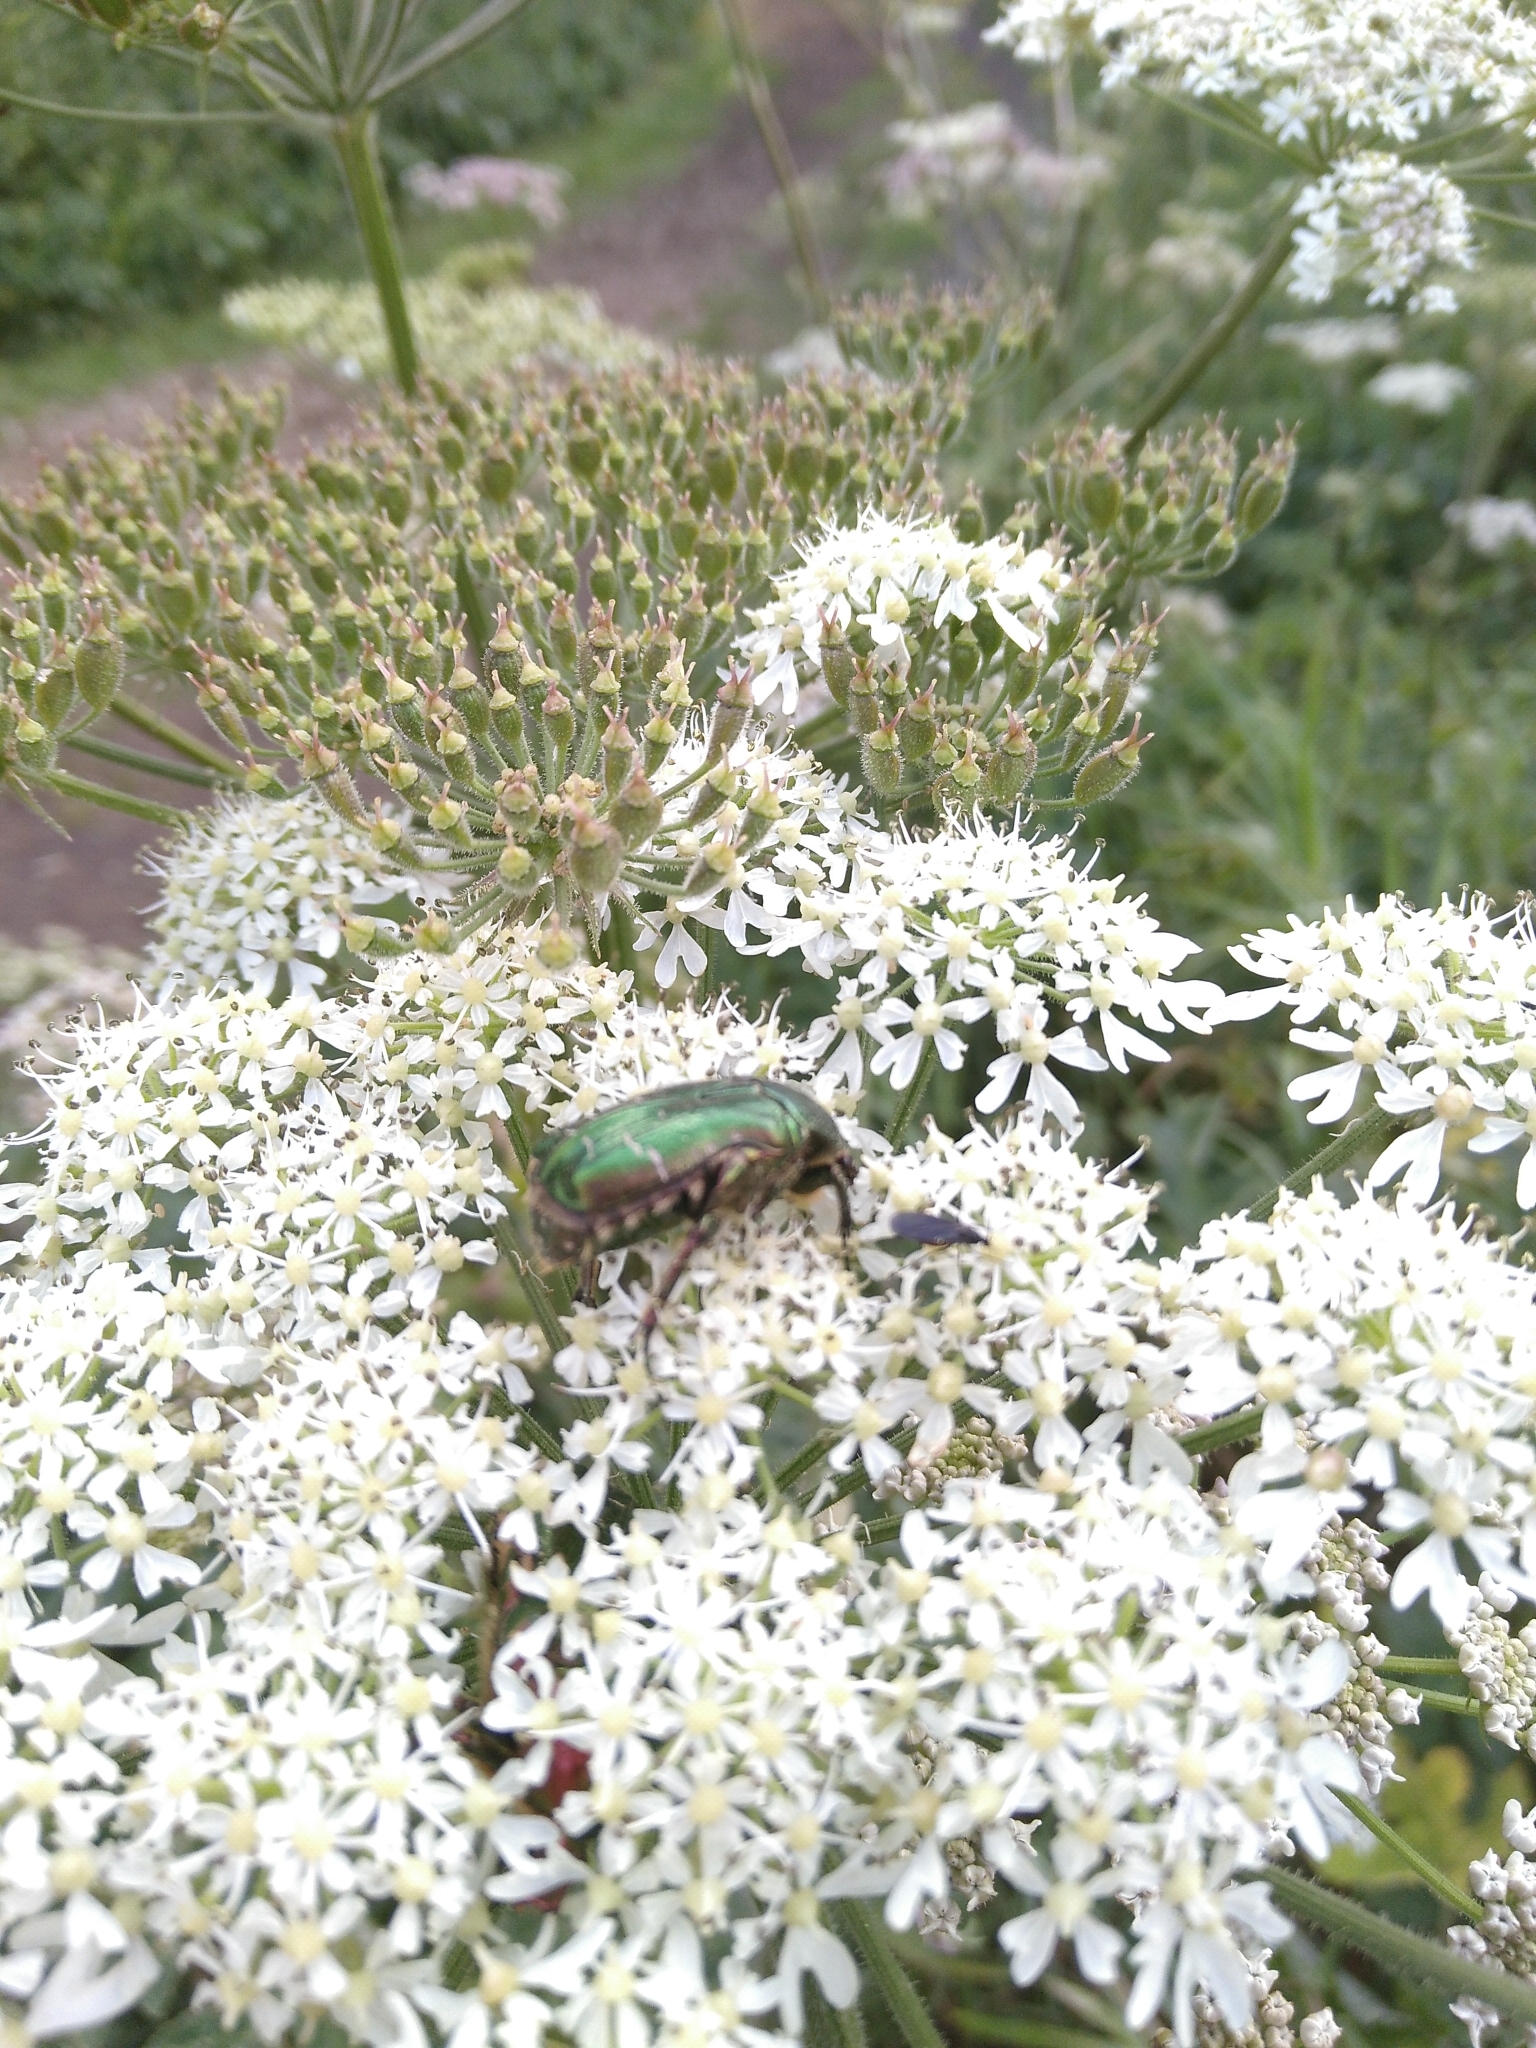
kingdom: Animalia
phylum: Arthropoda
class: Insecta
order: Coleoptera
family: Scarabaeidae
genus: Cetonia
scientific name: Cetonia aurata
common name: Rose chafer
